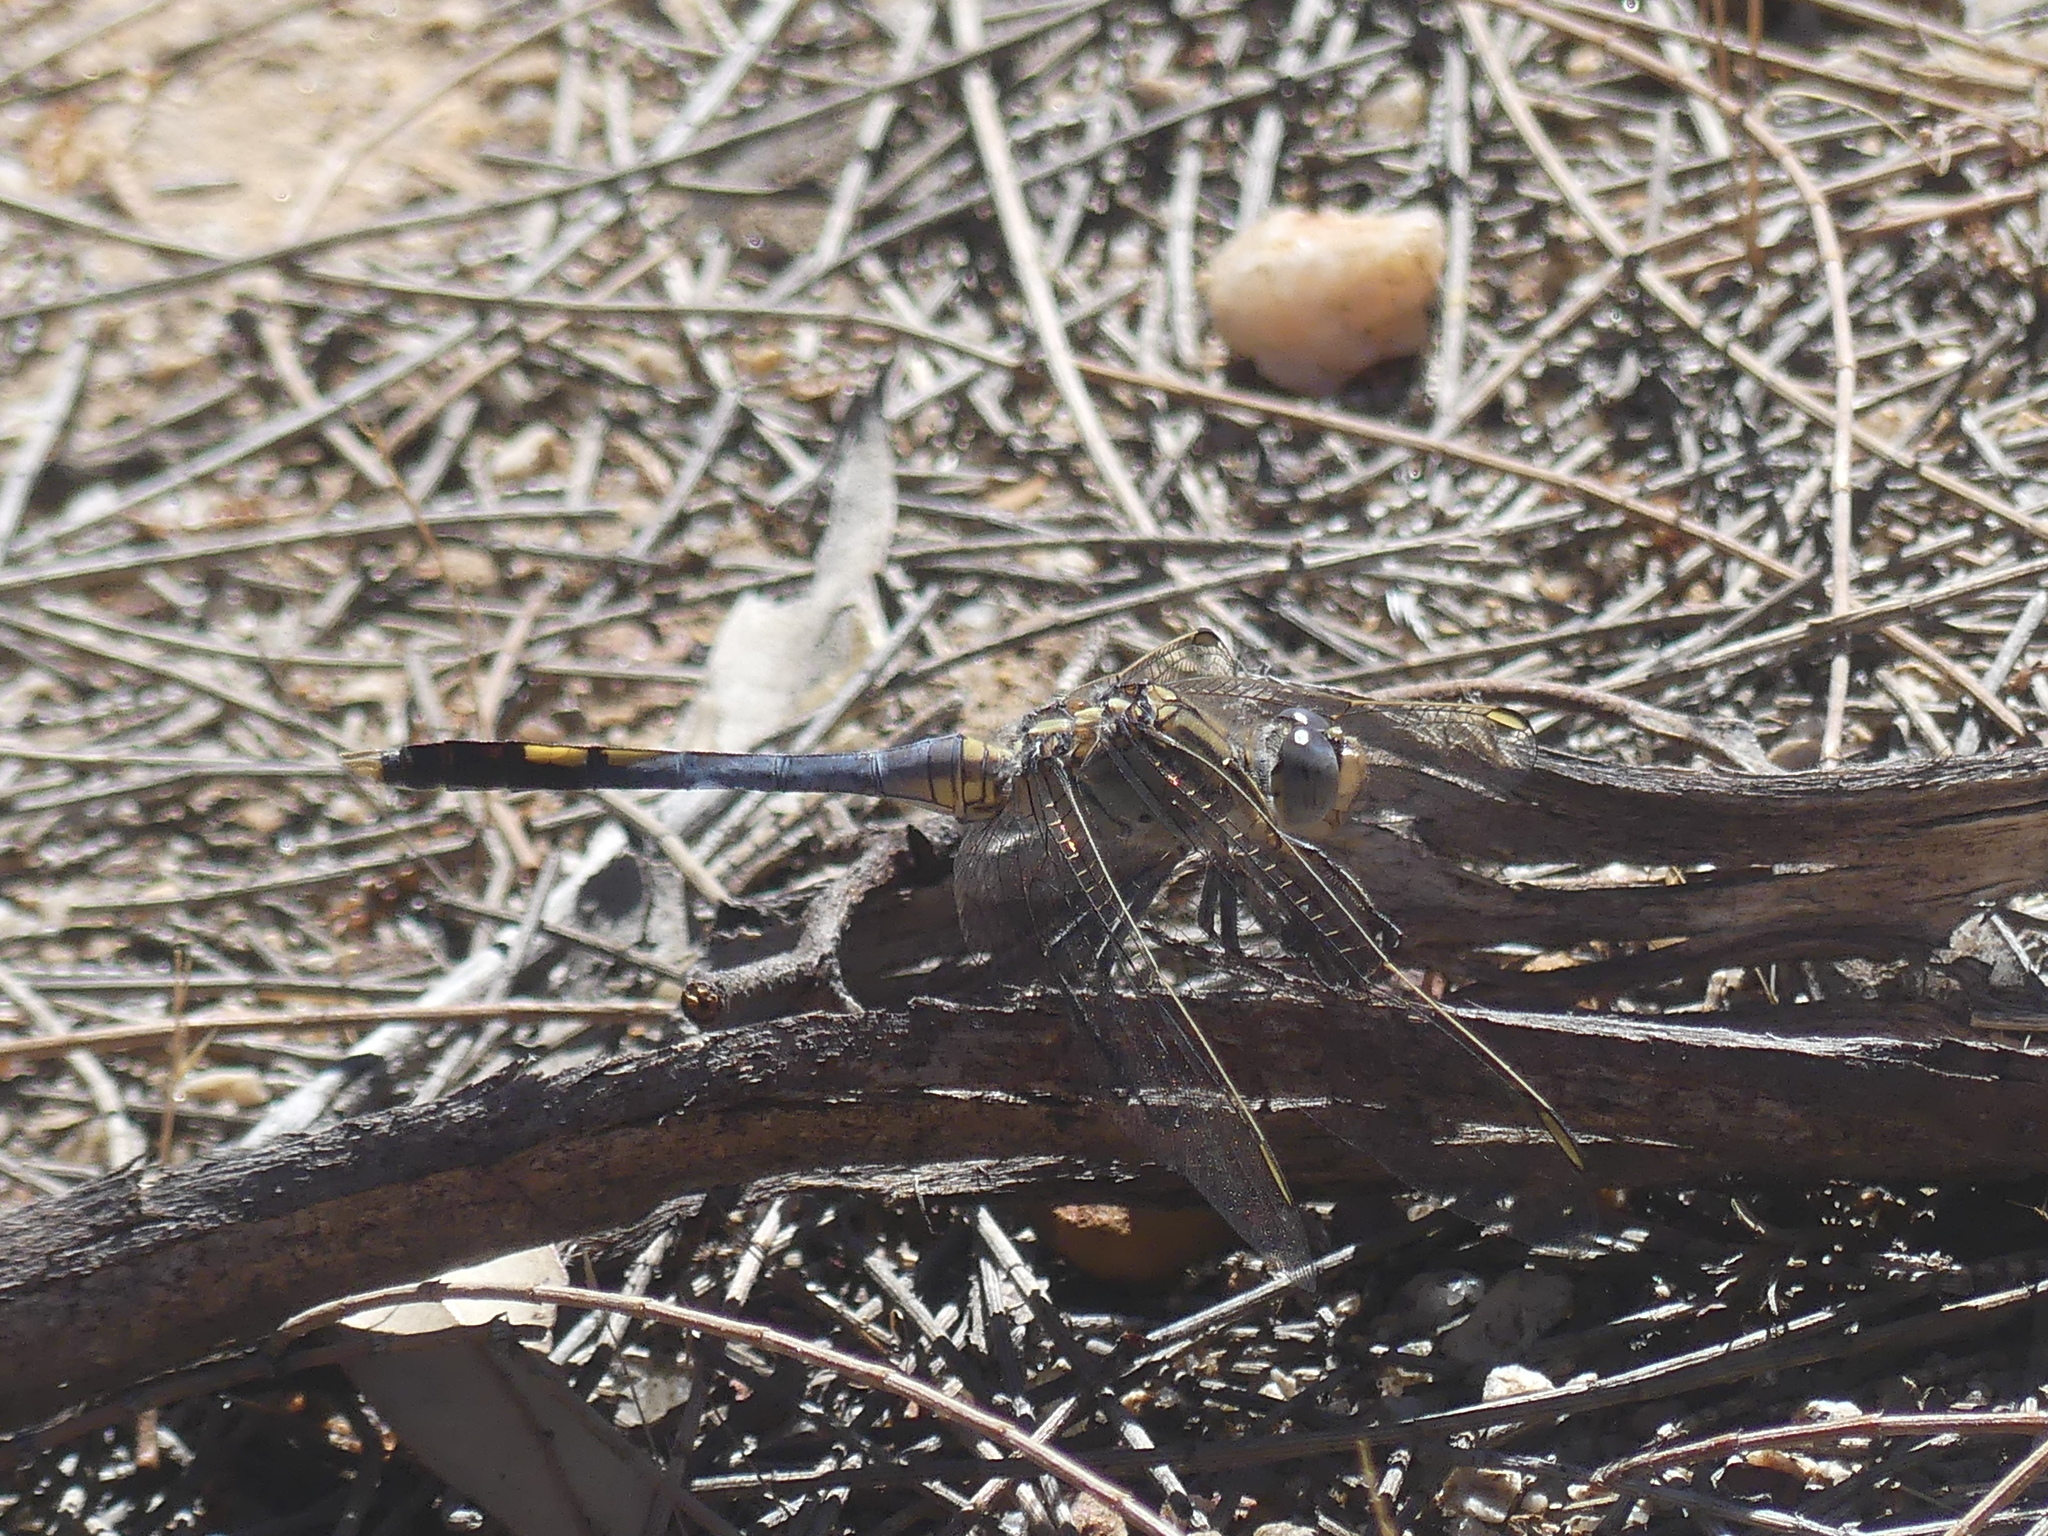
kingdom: Animalia
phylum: Arthropoda
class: Insecta
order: Odonata
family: Libellulidae
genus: Orthetrum
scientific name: Orthetrum caledonicum
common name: Blue skimmer
